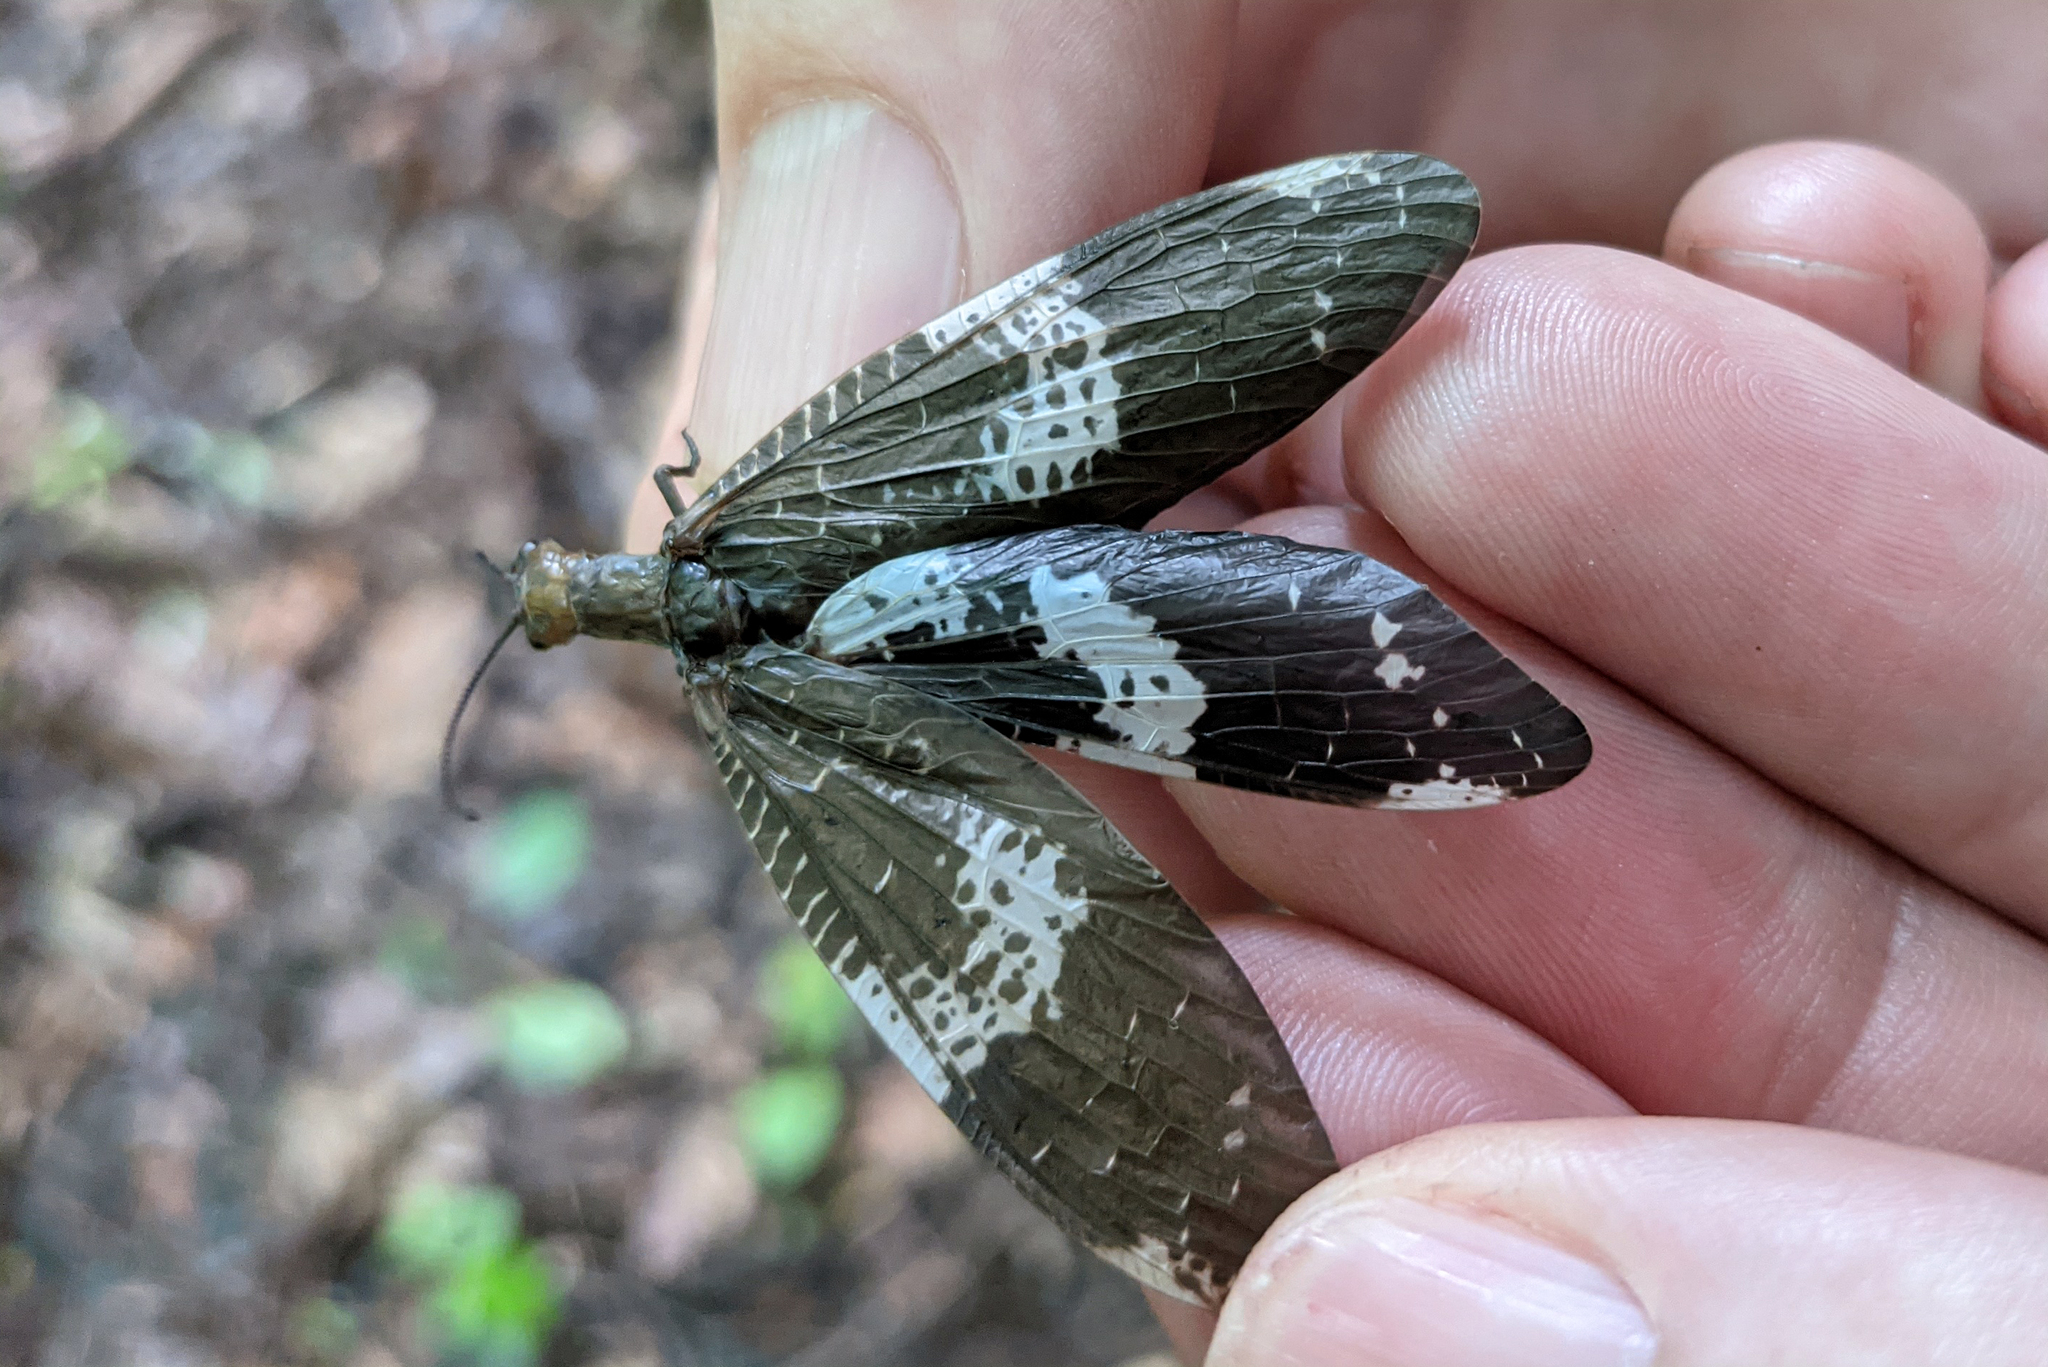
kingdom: Animalia
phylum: Arthropoda
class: Insecta
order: Megaloptera
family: Corydalidae
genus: Nigronia
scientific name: Nigronia fasciata
